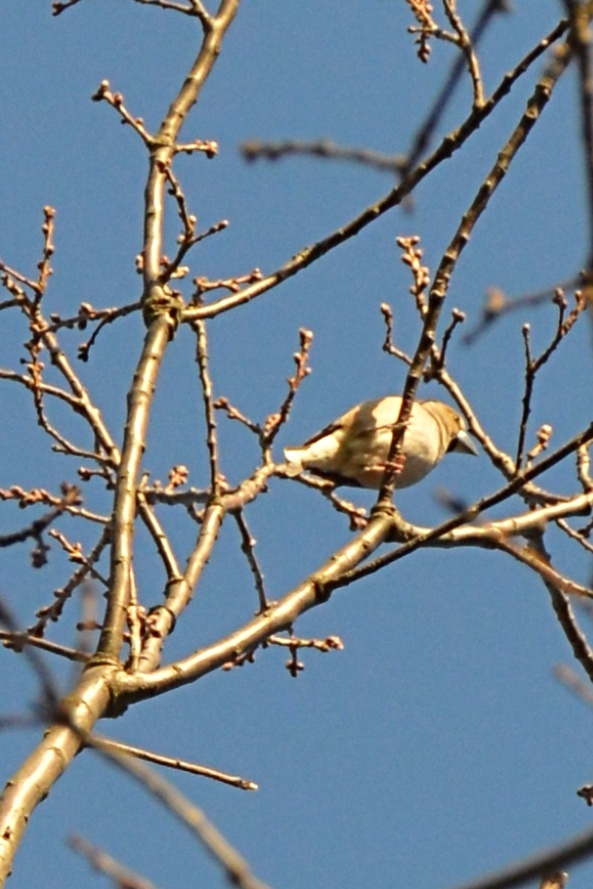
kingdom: Animalia
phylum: Chordata
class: Aves
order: Passeriformes
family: Fringillidae
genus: Coccothraustes
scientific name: Coccothraustes coccothraustes
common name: Hawfinch
